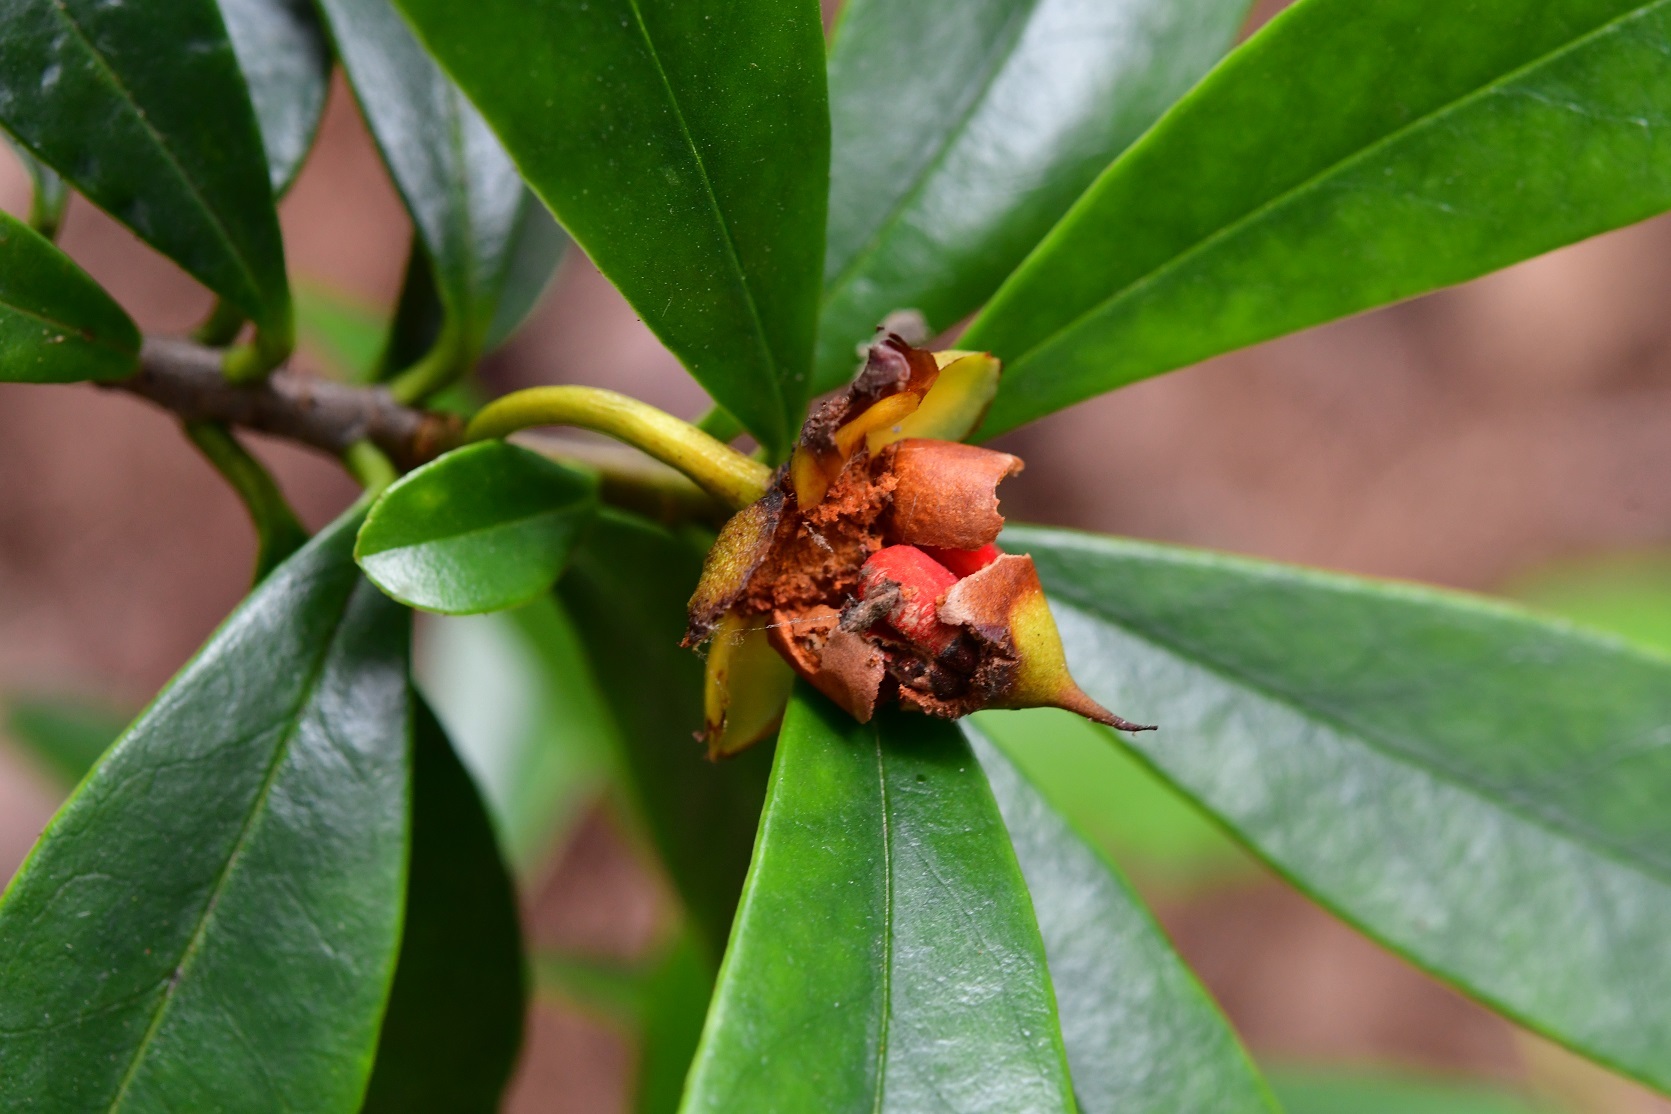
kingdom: Plantae
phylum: Tracheophyta
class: Magnoliopsida
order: Ericales
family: Pentaphylacaceae
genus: Ternstroemia
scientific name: Ternstroemia lineata
